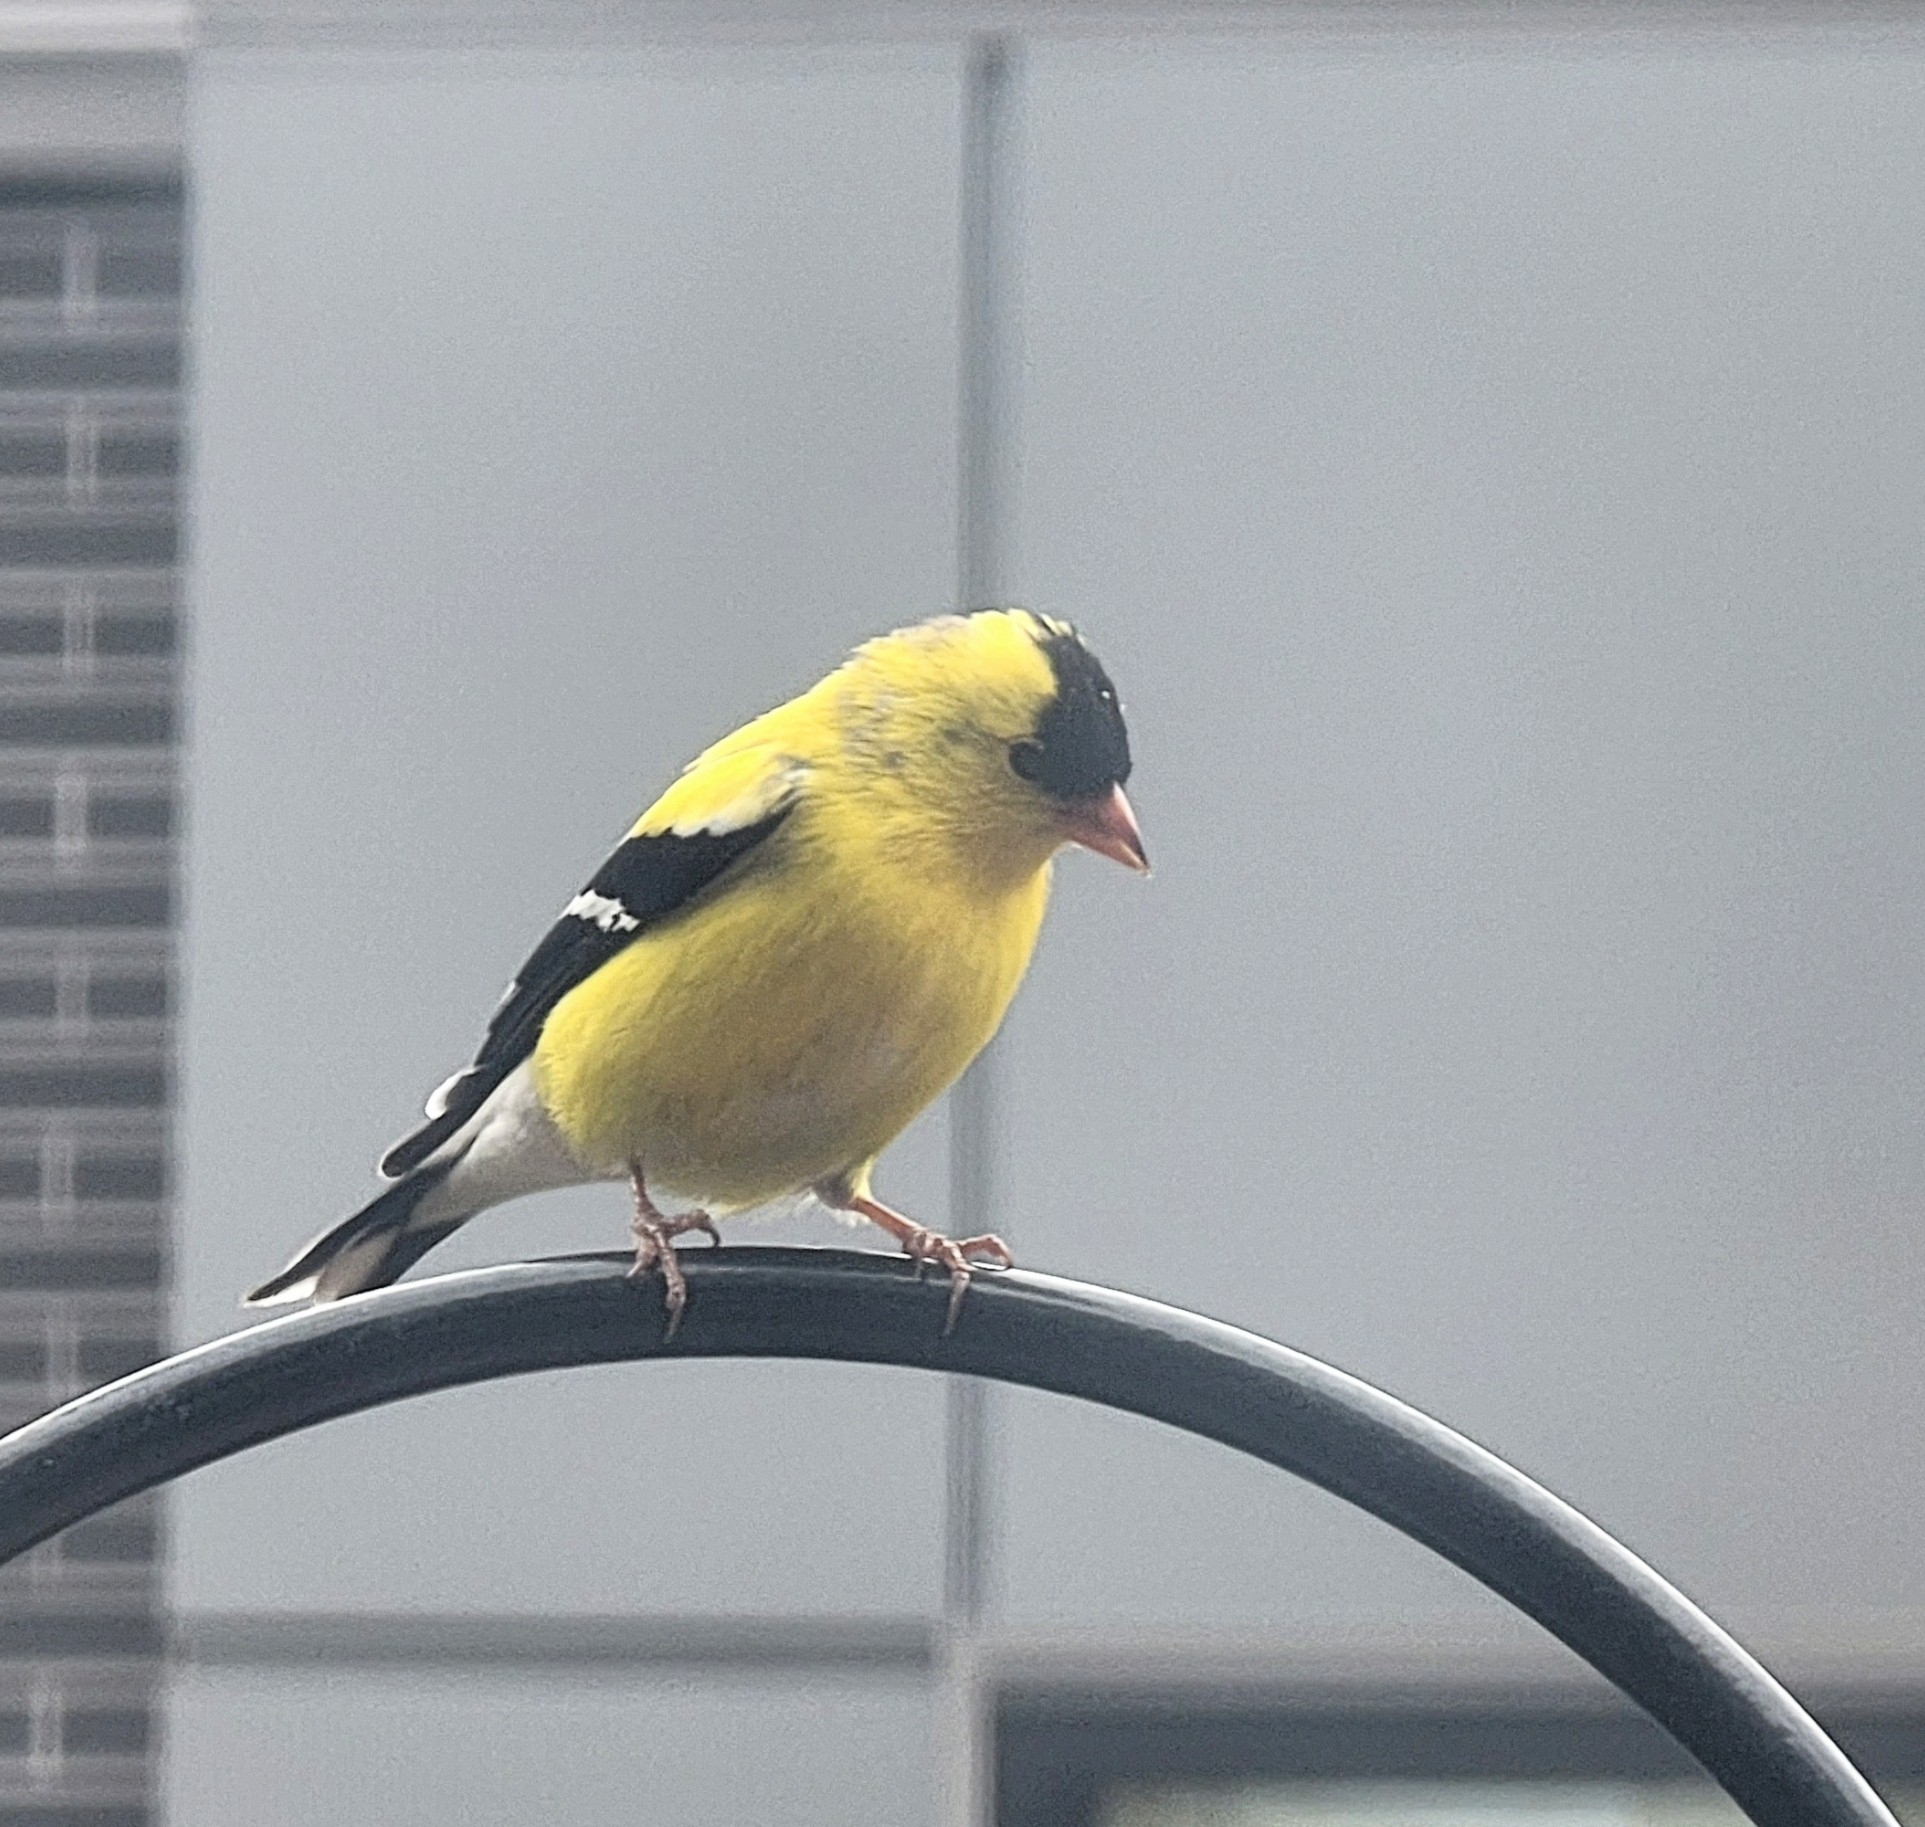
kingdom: Animalia
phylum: Chordata
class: Aves
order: Passeriformes
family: Fringillidae
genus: Spinus
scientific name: Spinus tristis
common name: American goldfinch
